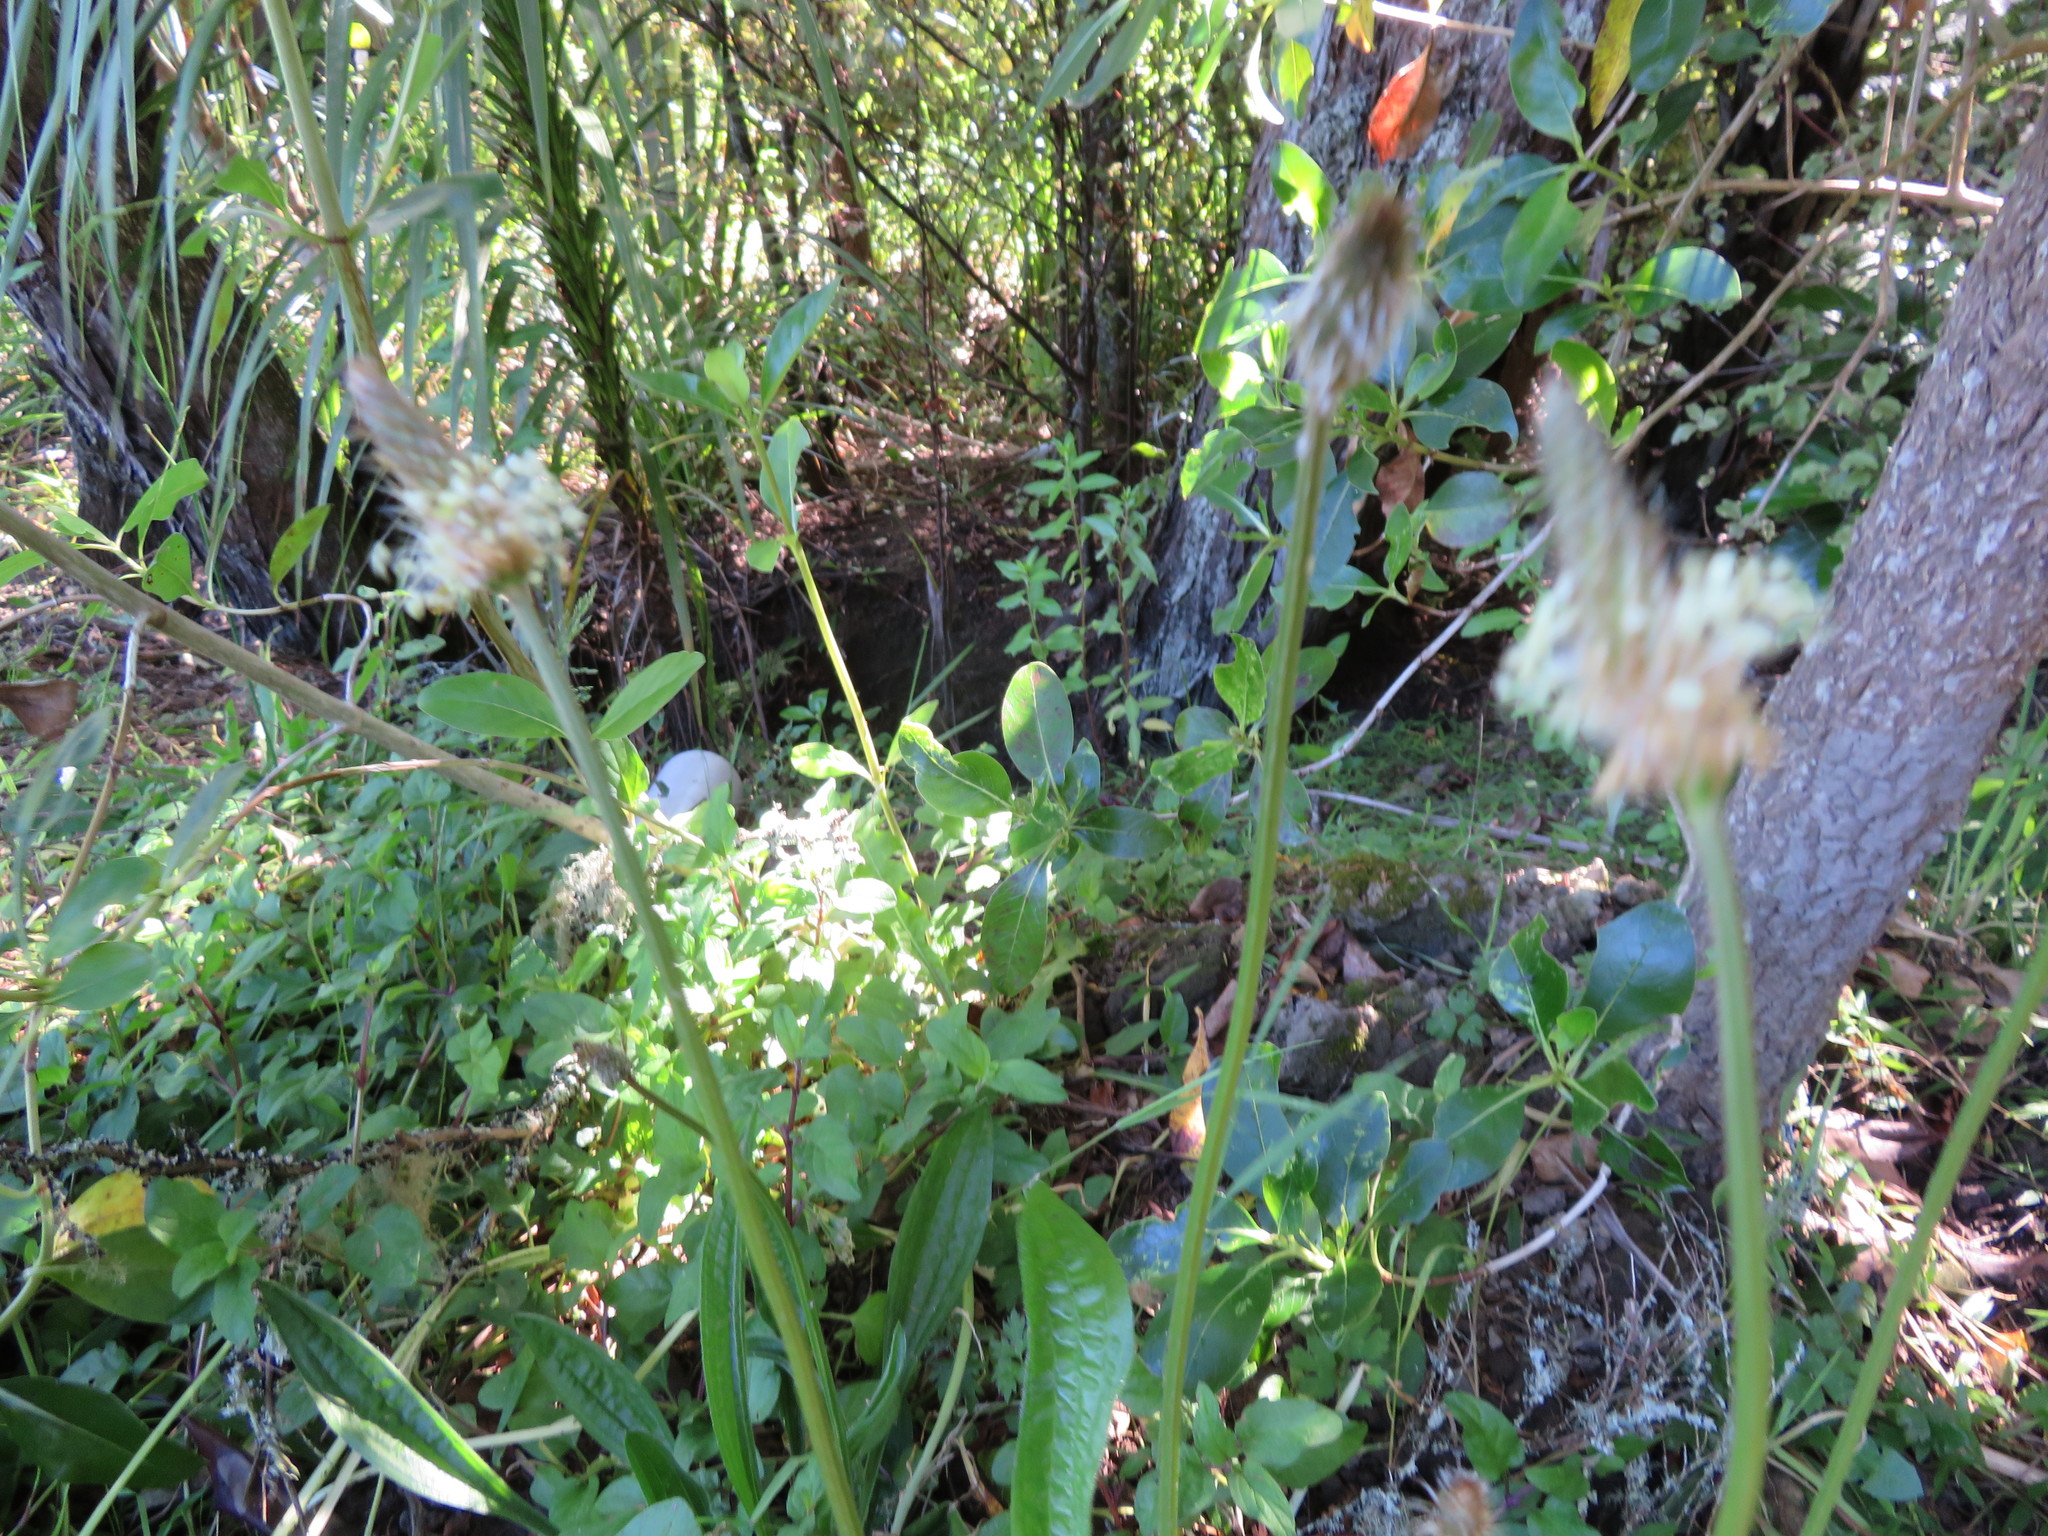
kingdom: Plantae
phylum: Tracheophyta
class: Magnoliopsida
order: Lamiales
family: Plantaginaceae
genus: Plantago
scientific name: Plantago lanceolata
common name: Ribwort plantain
